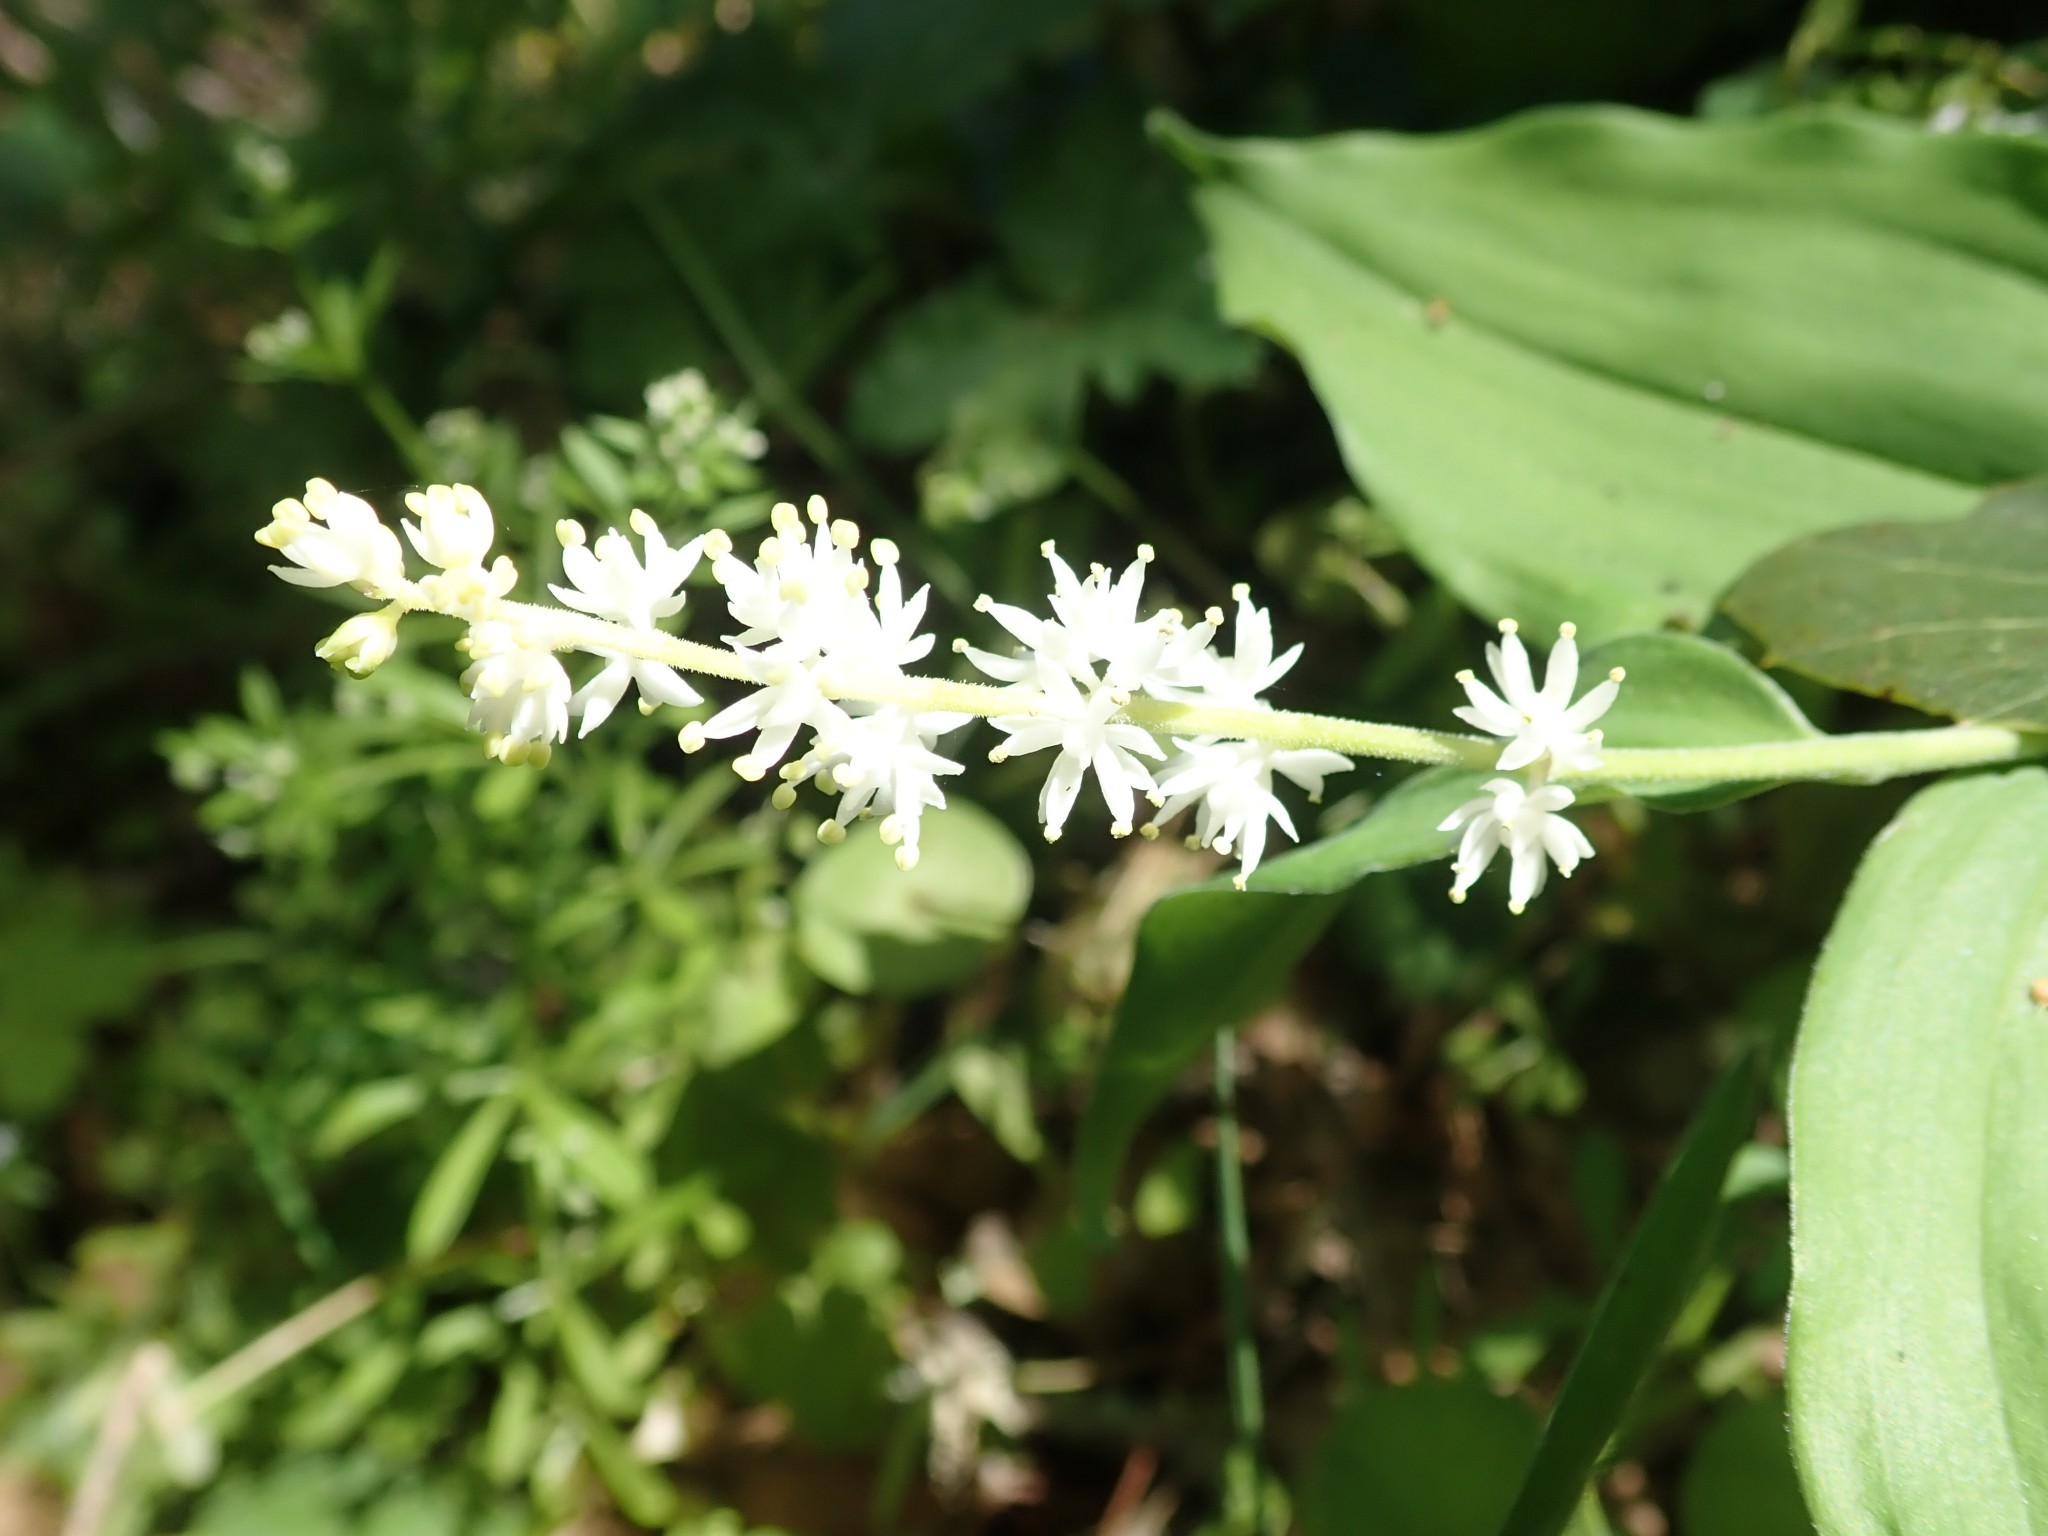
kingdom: Plantae
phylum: Tracheophyta
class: Liliopsida
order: Asparagales
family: Asparagaceae
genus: Maianthemum
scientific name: Maianthemum racemosum
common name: False spikenard
